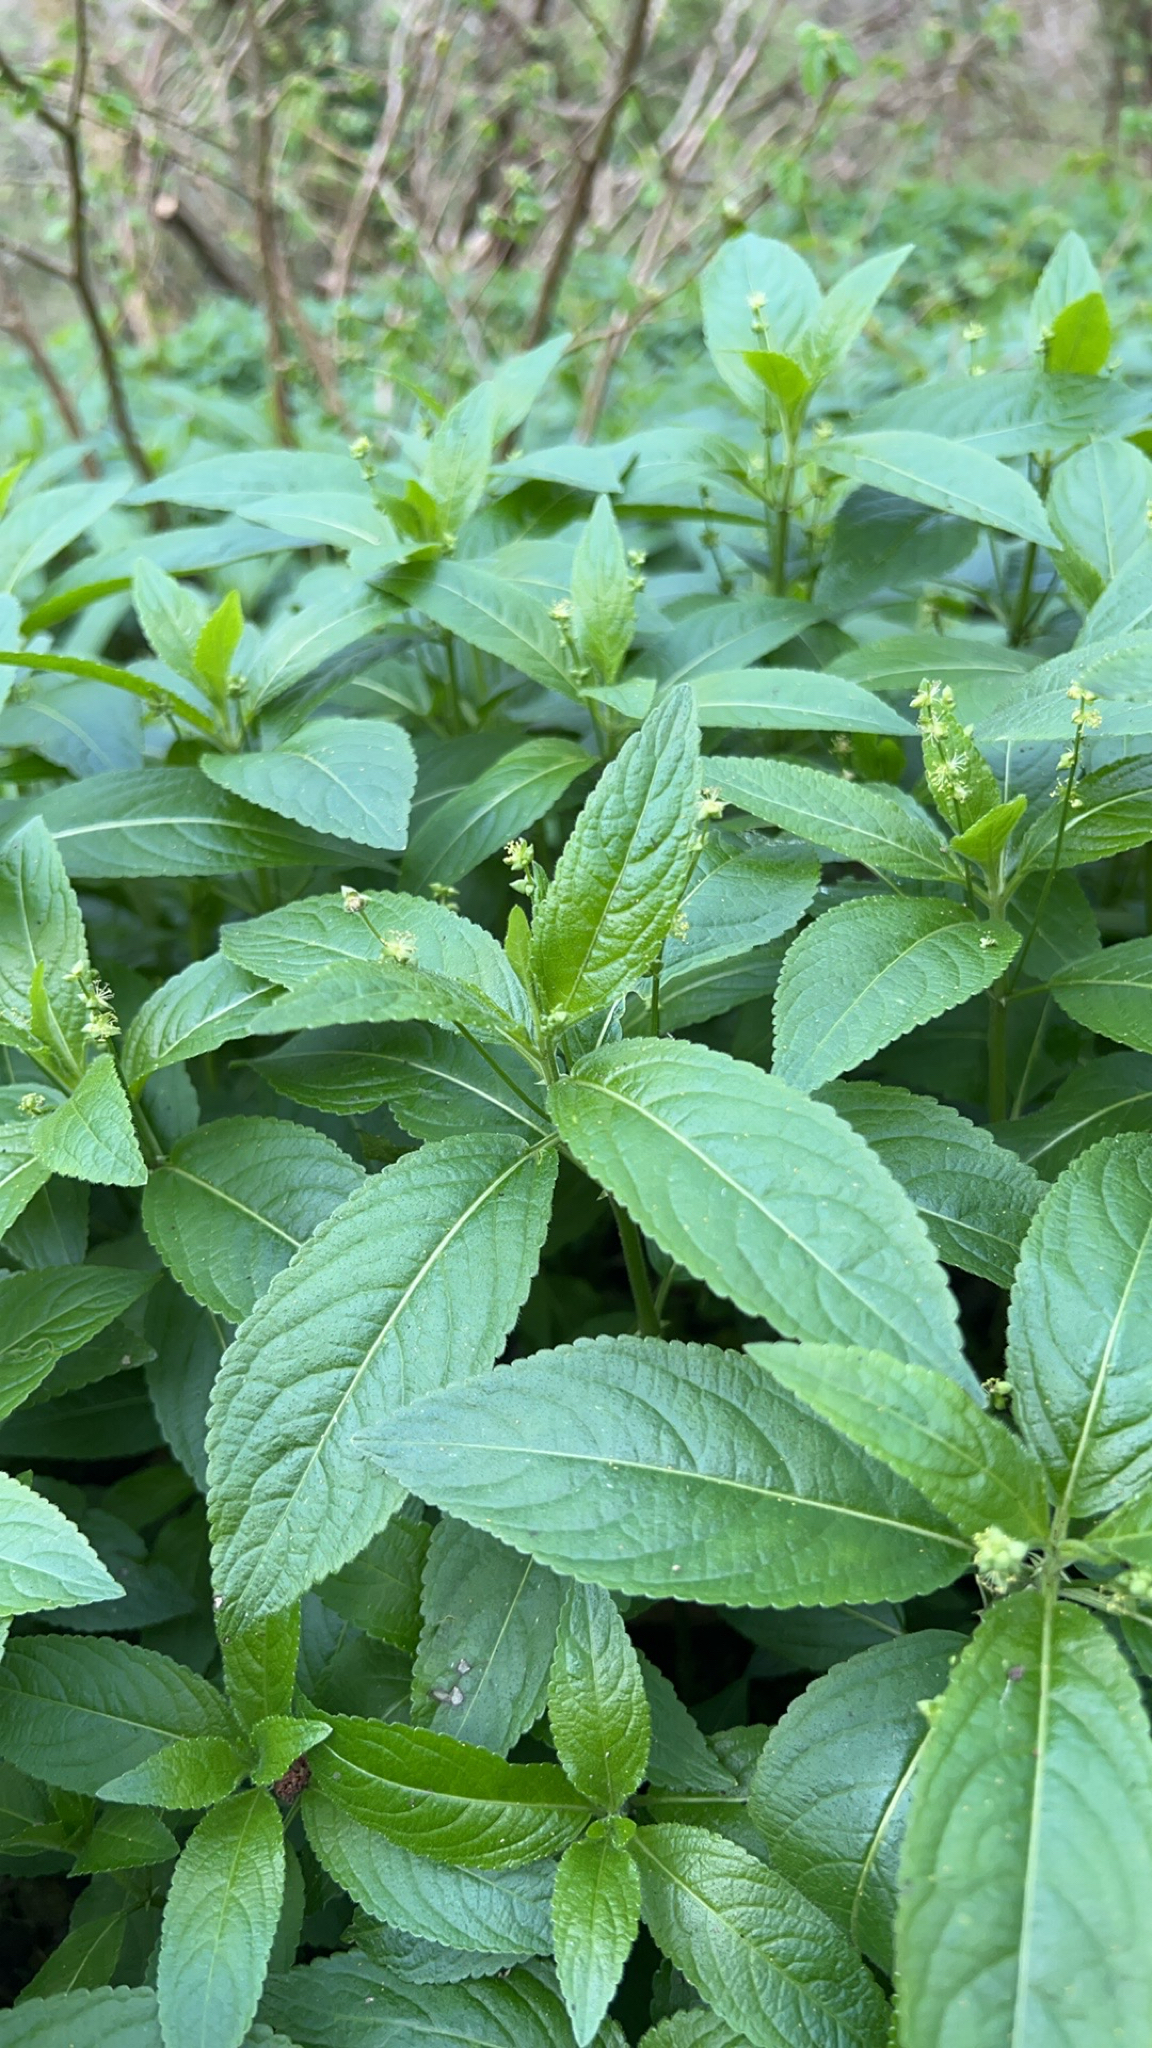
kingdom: Plantae
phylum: Tracheophyta
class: Magnoliopsida
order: Malpighiales
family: Euphorbiaceae
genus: Mercurialis
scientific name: Mercurialis perennis
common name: Dog mercury
